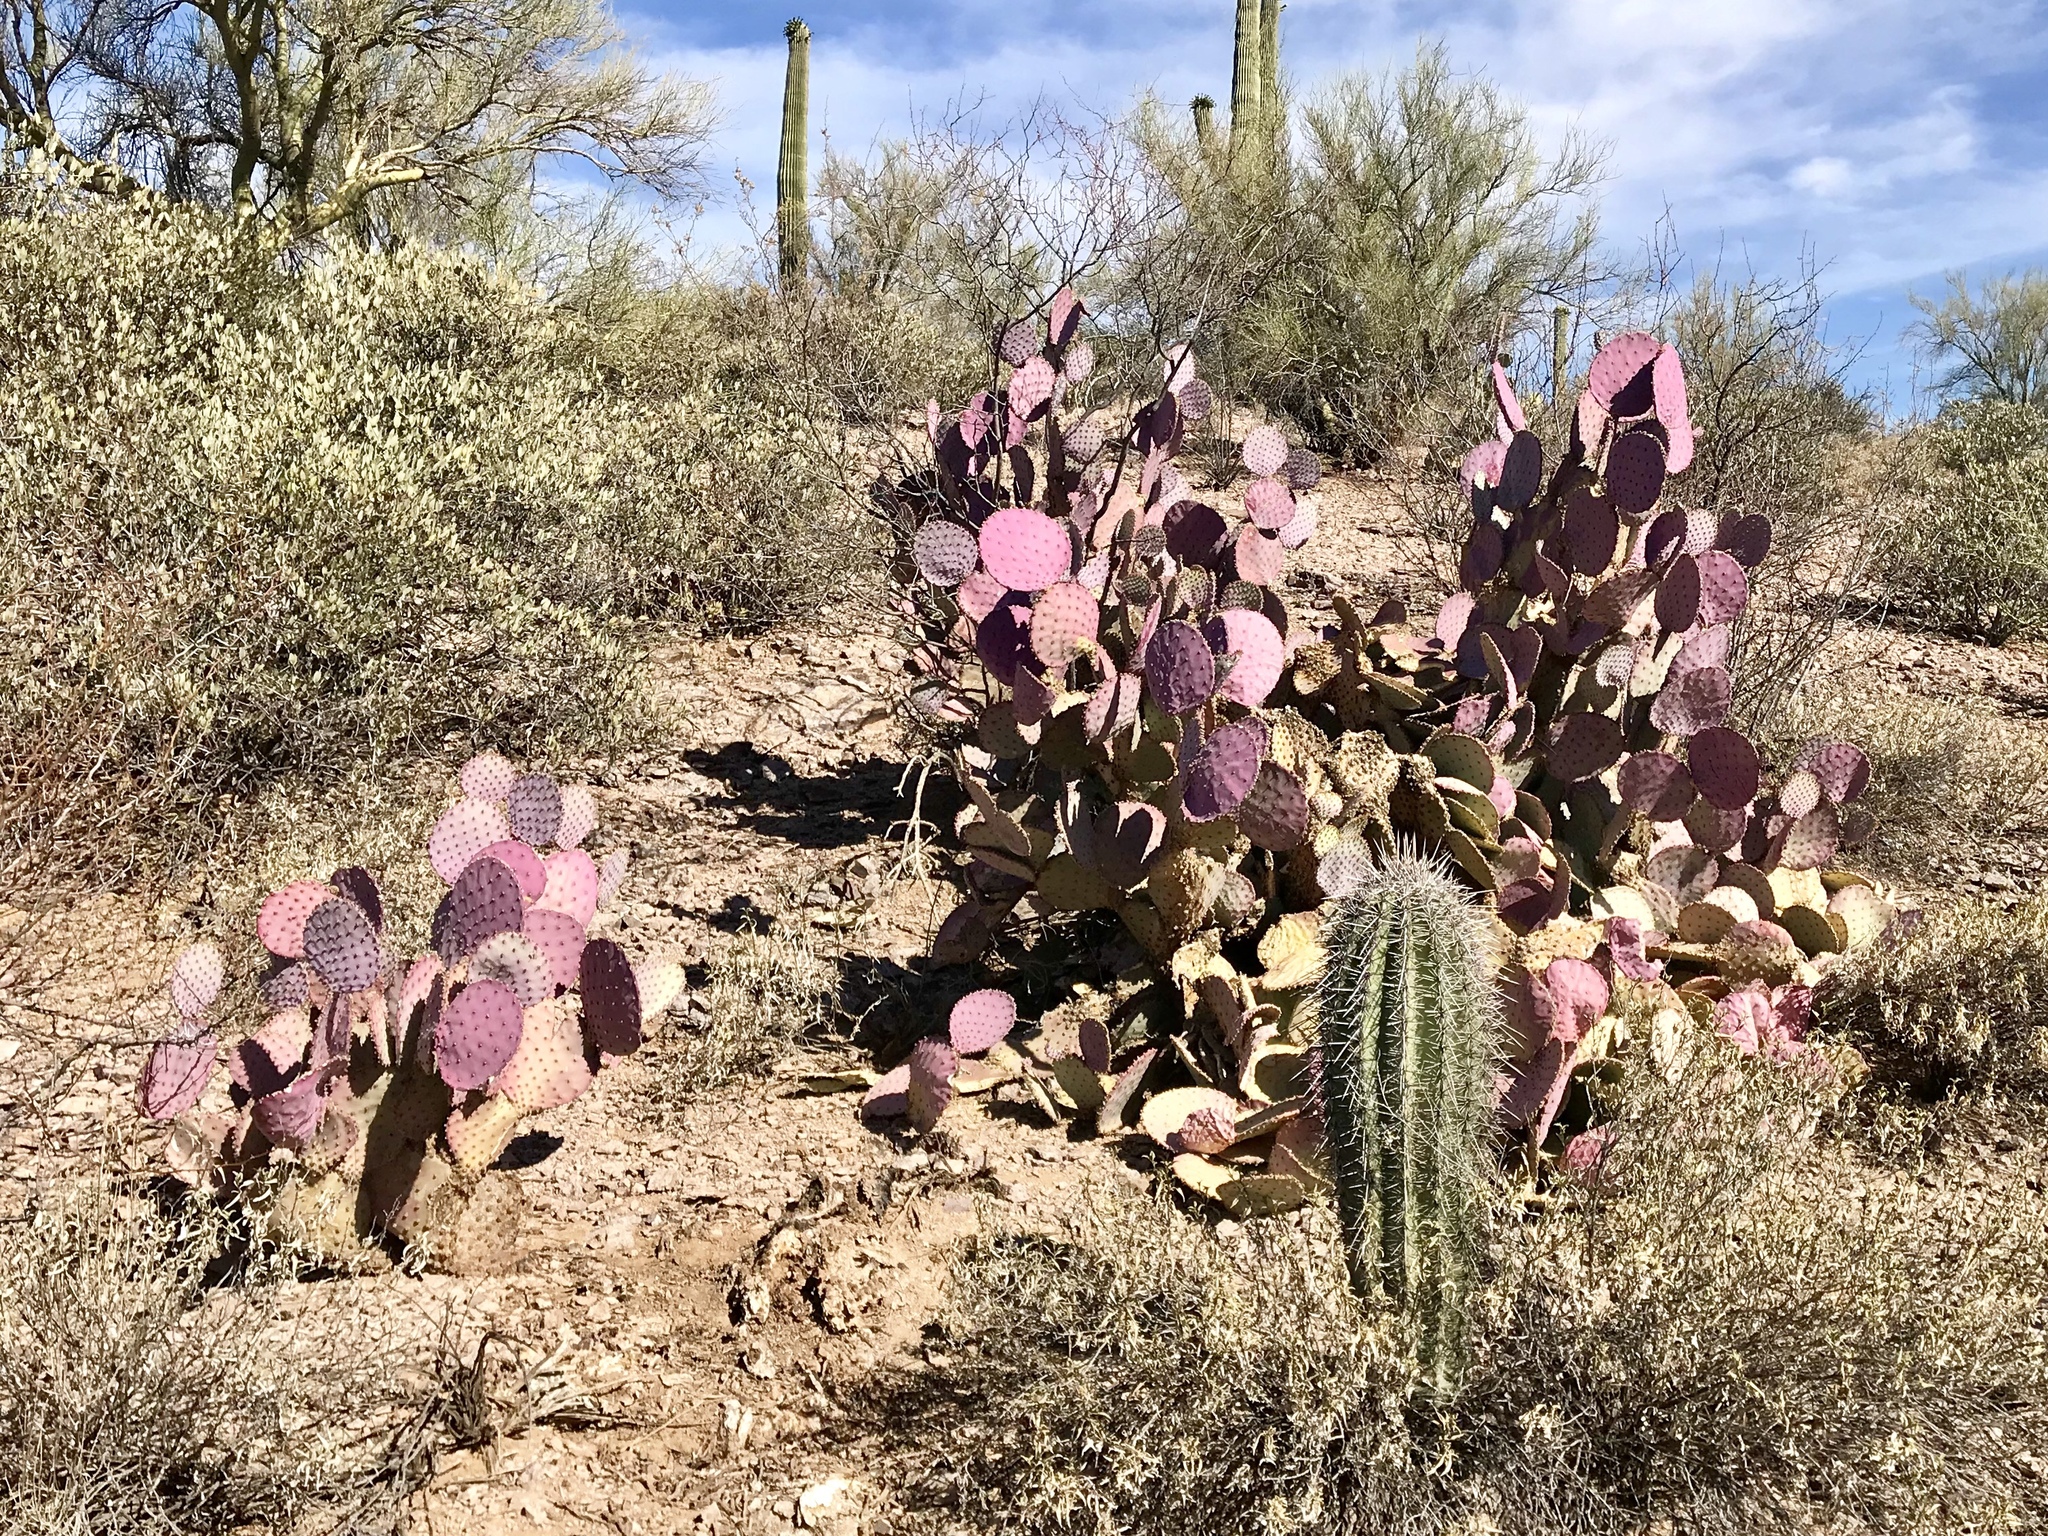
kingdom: Plantae
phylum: Tracheophyta
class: Magnoliopsida
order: Caryophyllales
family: Cactaceae
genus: Opuntia
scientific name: Opuntia gosseliniana
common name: Violet prickly-pear
